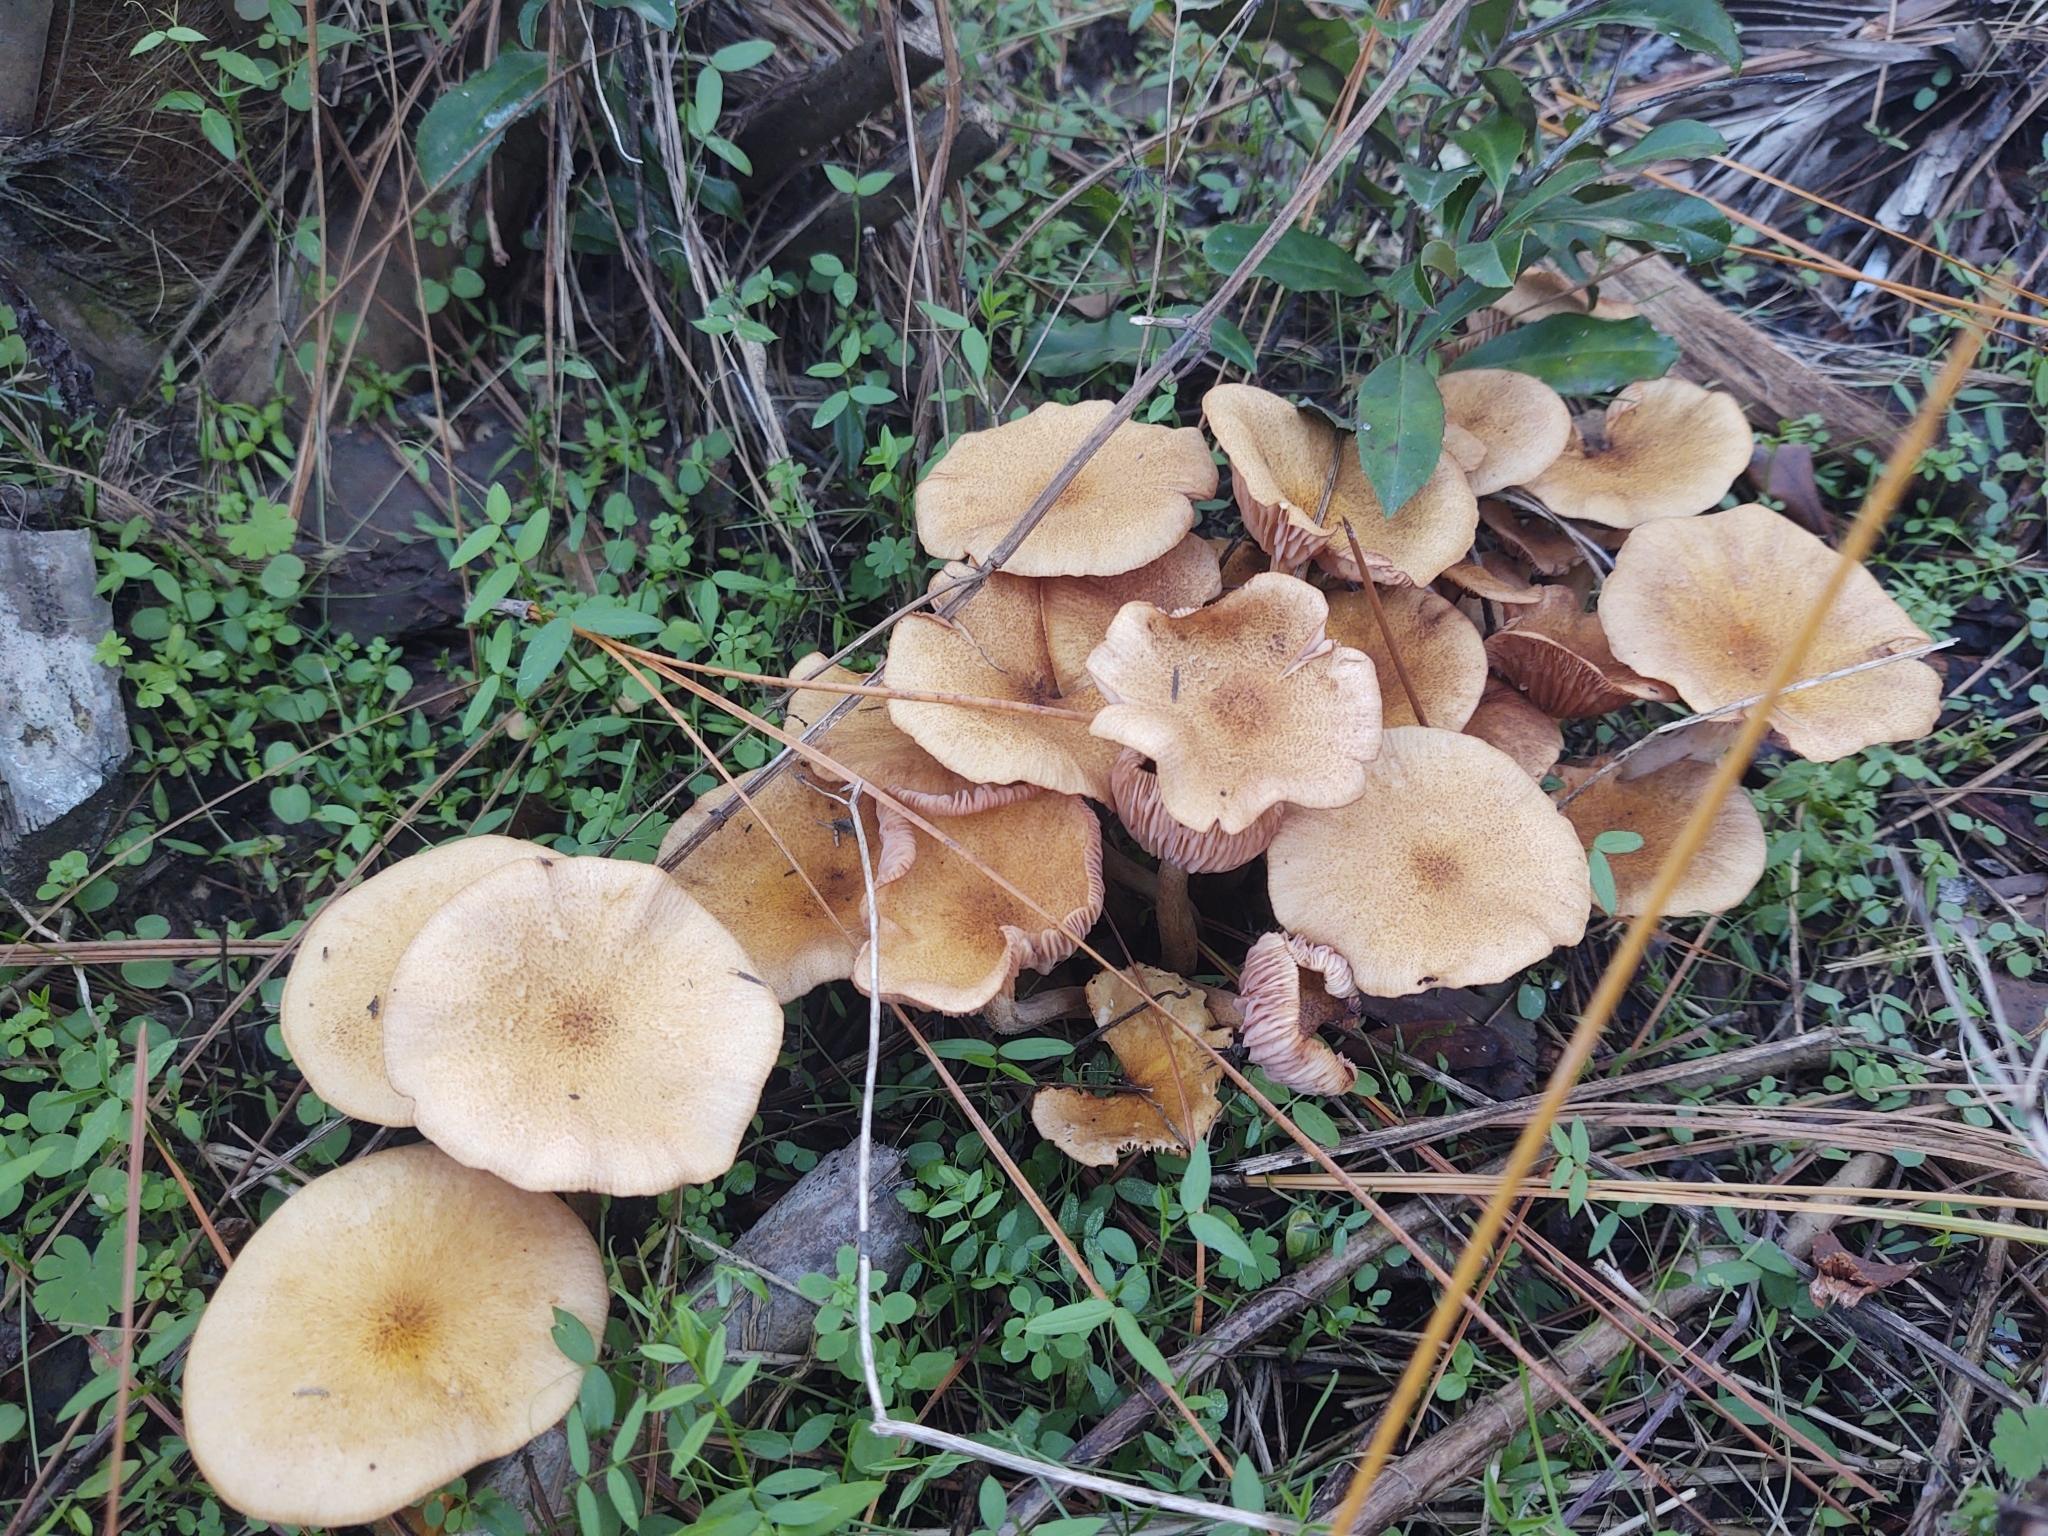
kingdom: Fungi
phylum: Basidiomycota
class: Agaricomycetes
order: Agaricales
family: Physalacriaceae
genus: Desarmillaria
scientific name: Desarmillaria caespitosa
